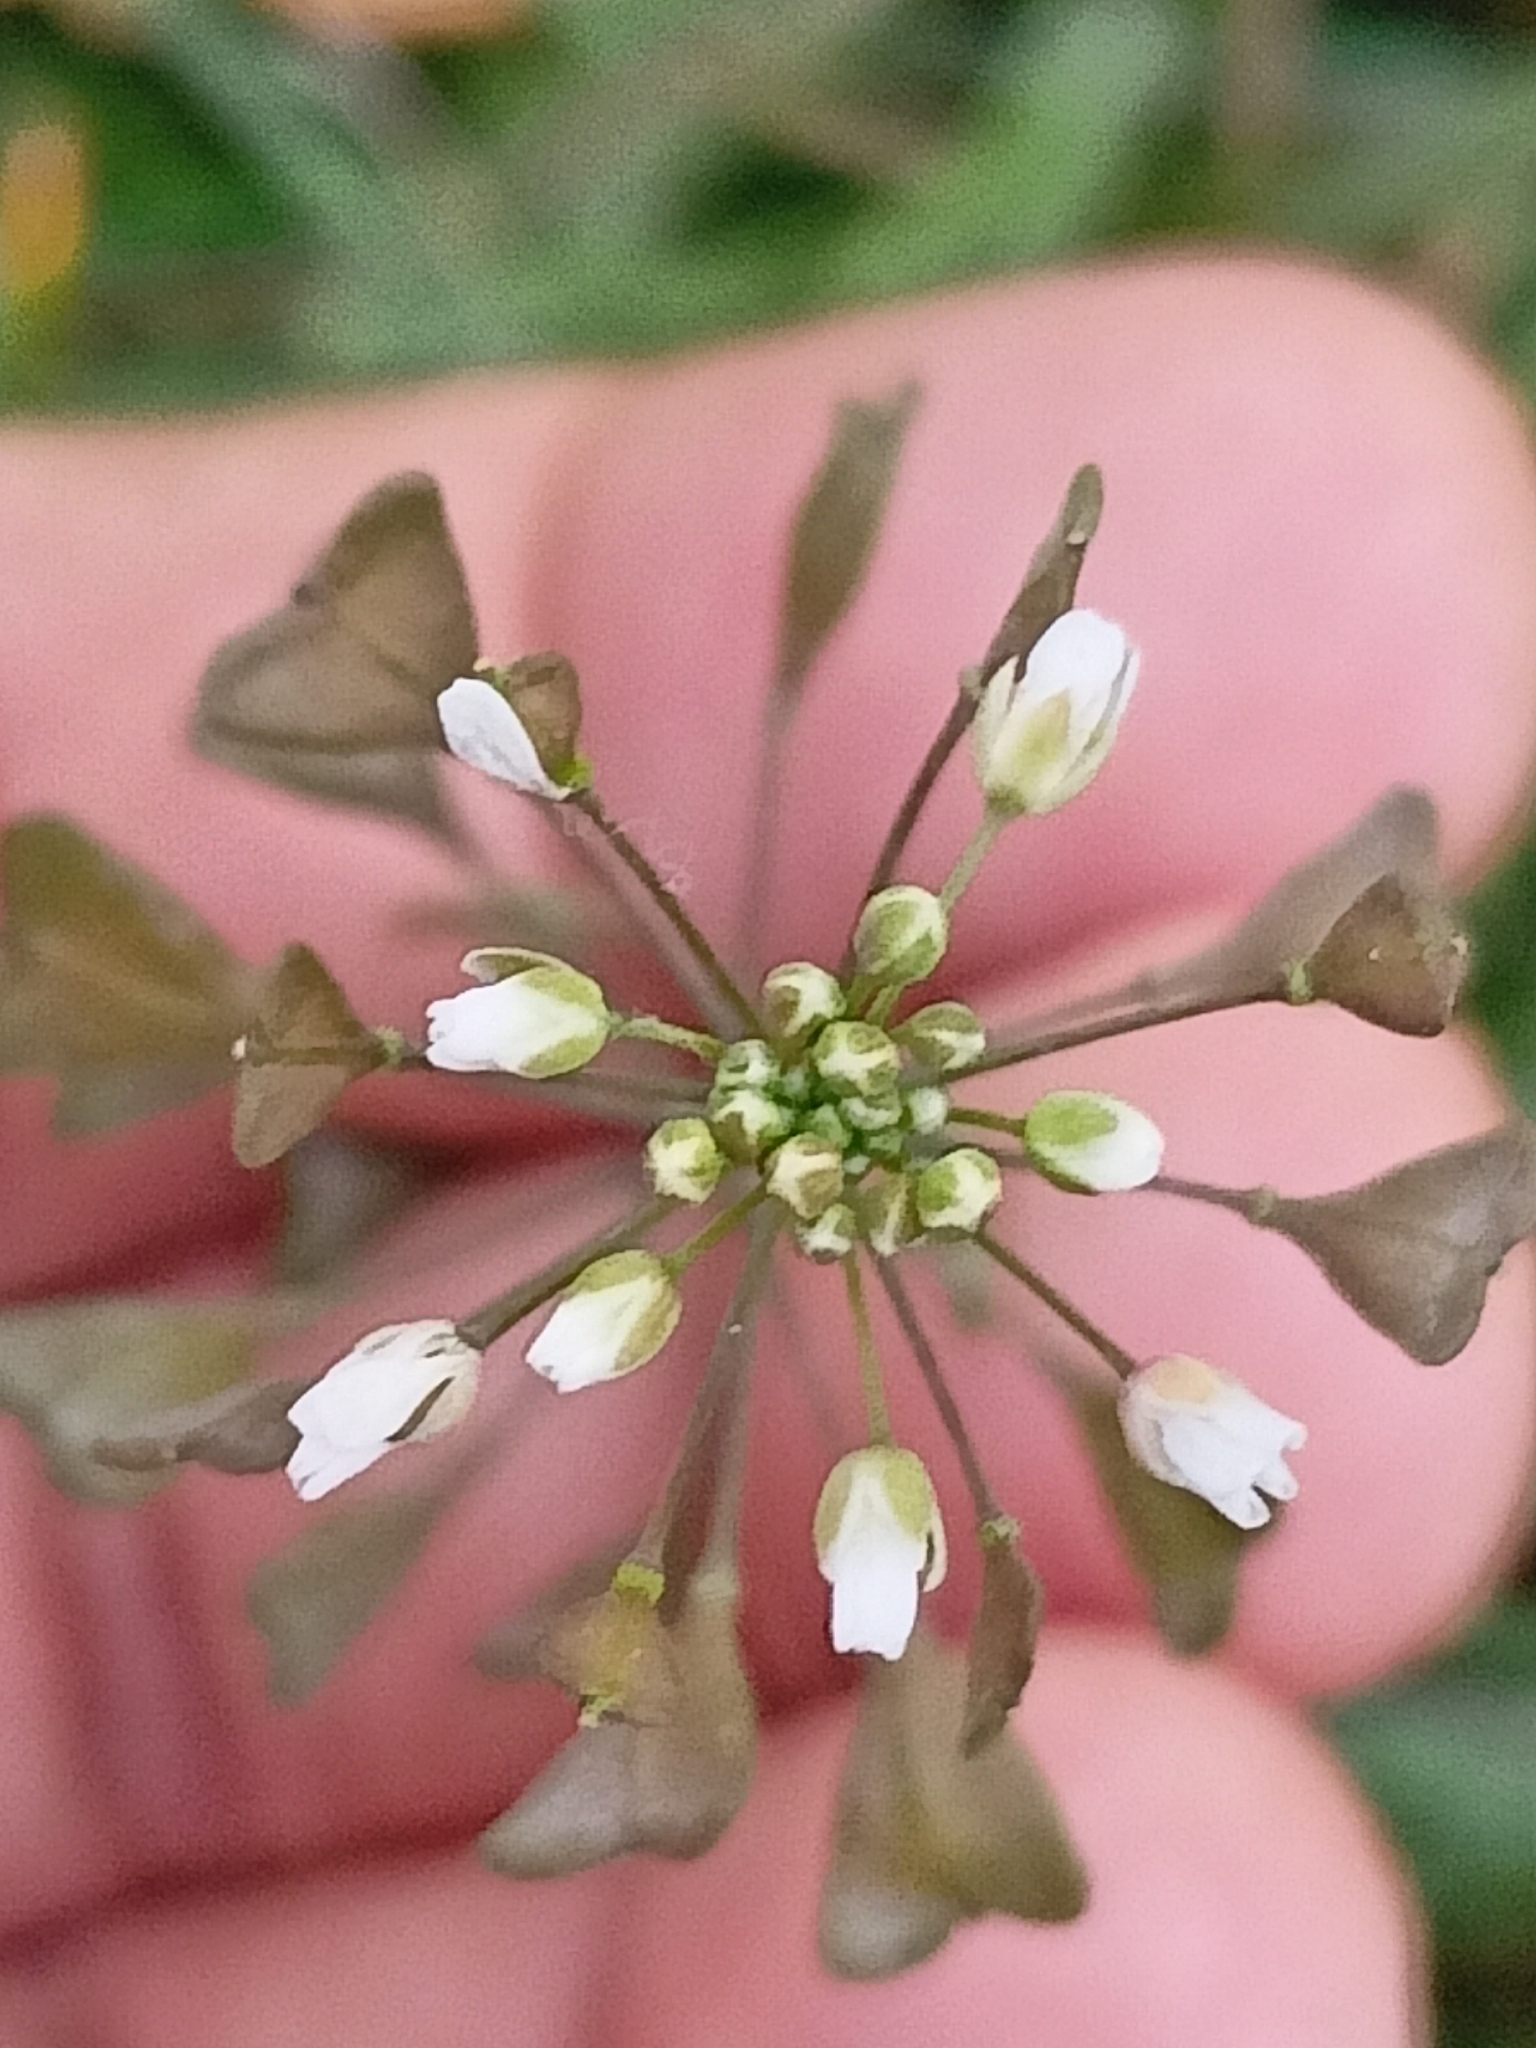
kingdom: Plantae
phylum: Tracheophyta
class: Magnoliopsida
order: Brassicales
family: Brassicaceae
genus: Capsella
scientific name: Capsella bursa-pastoris
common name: Shepherd's purse
